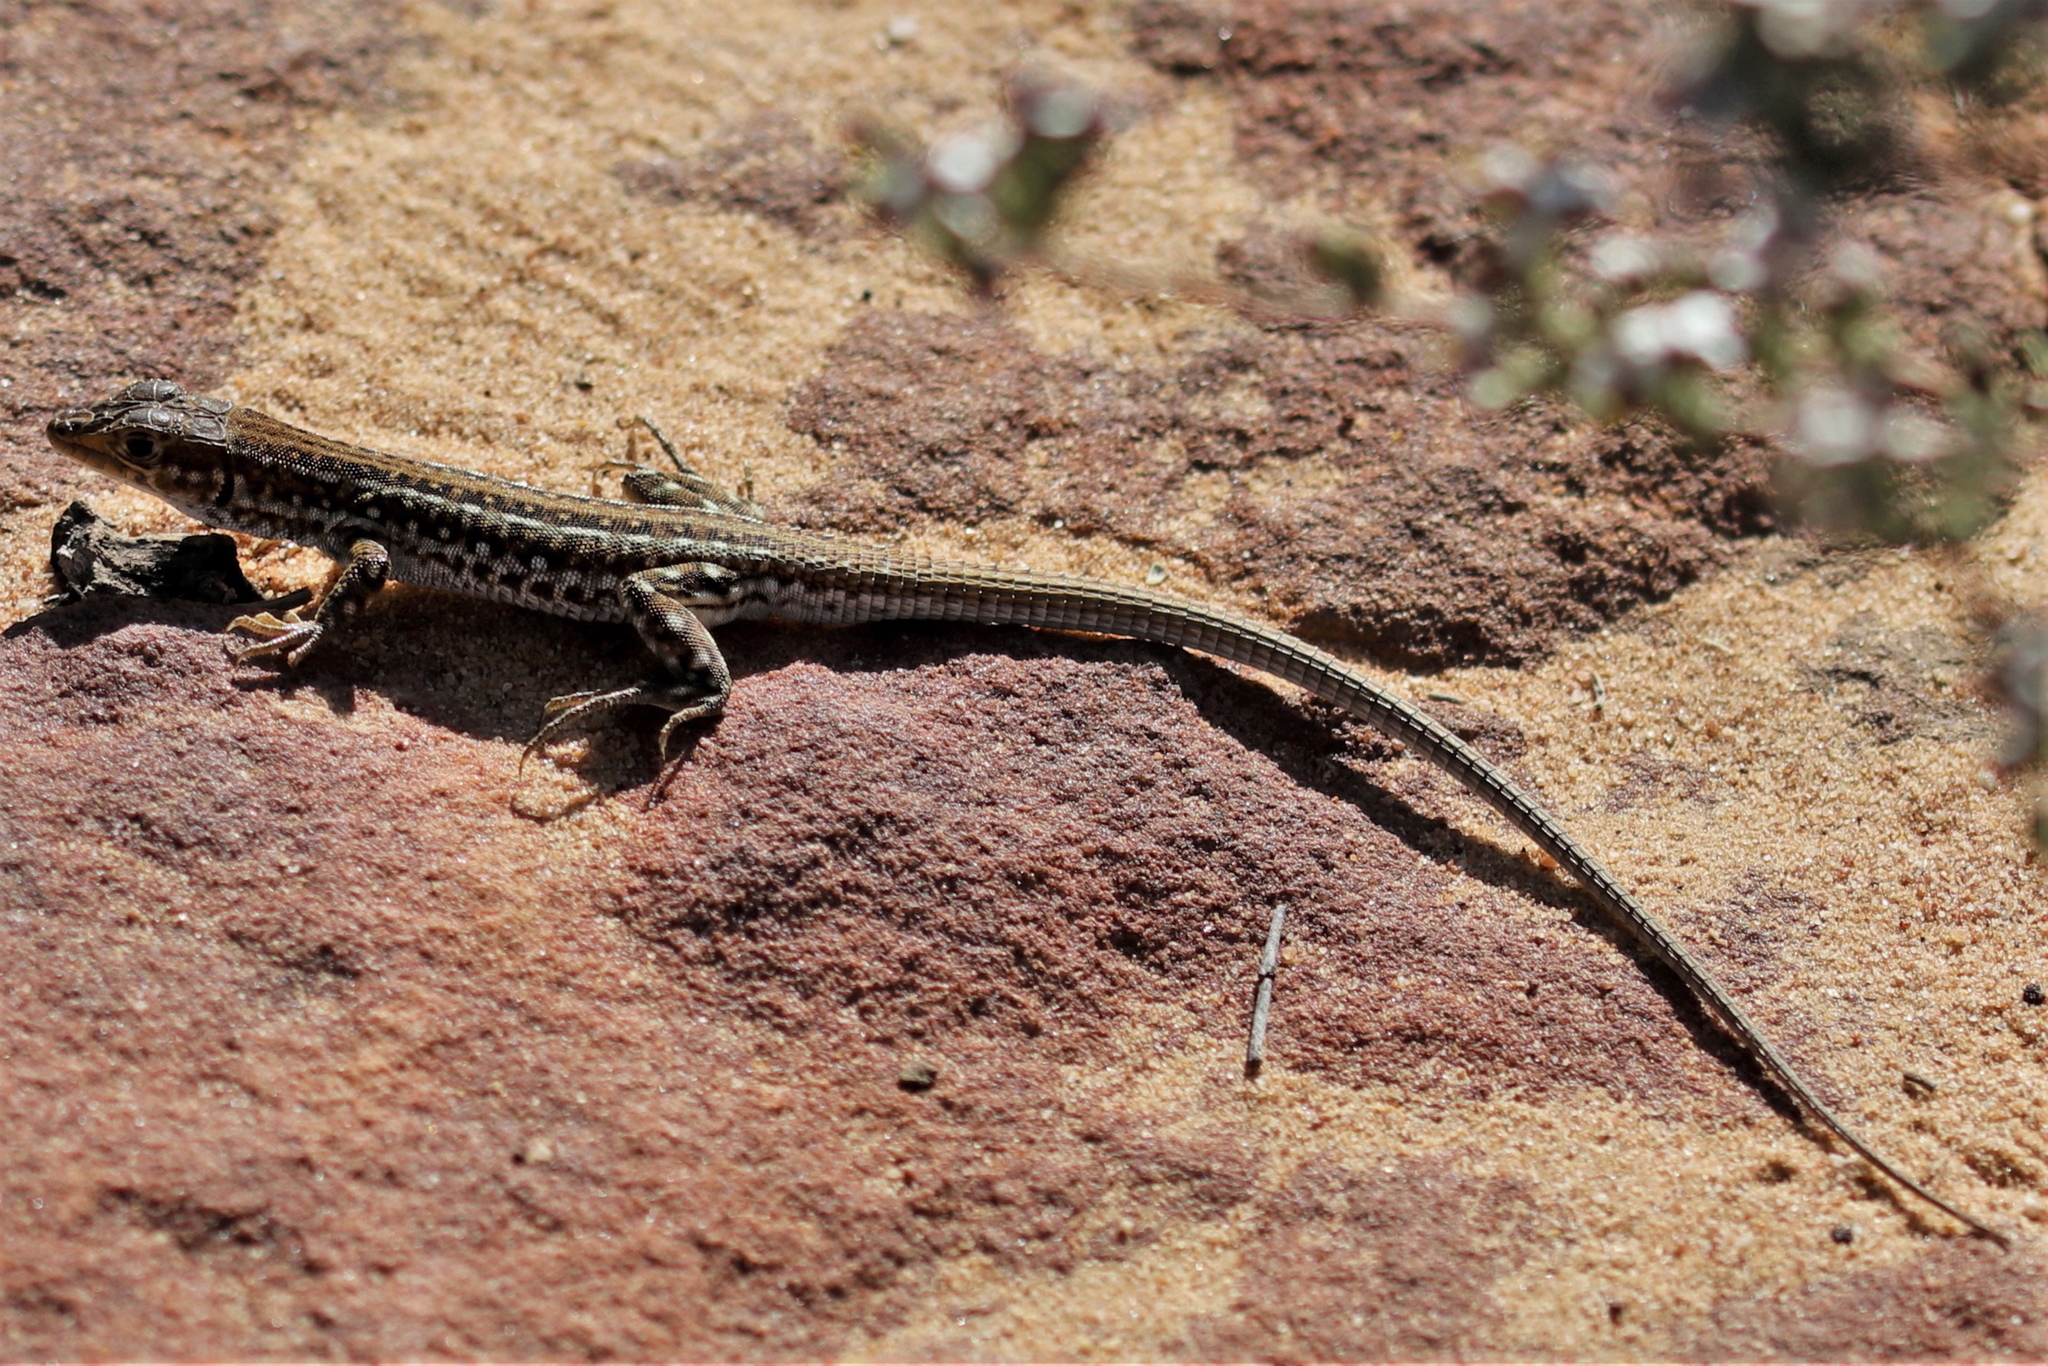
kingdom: Animalia
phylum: Chordata
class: Squamata
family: Lacertidae
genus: Meroles
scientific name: Meroles knoxii
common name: Knox's desert lizard
